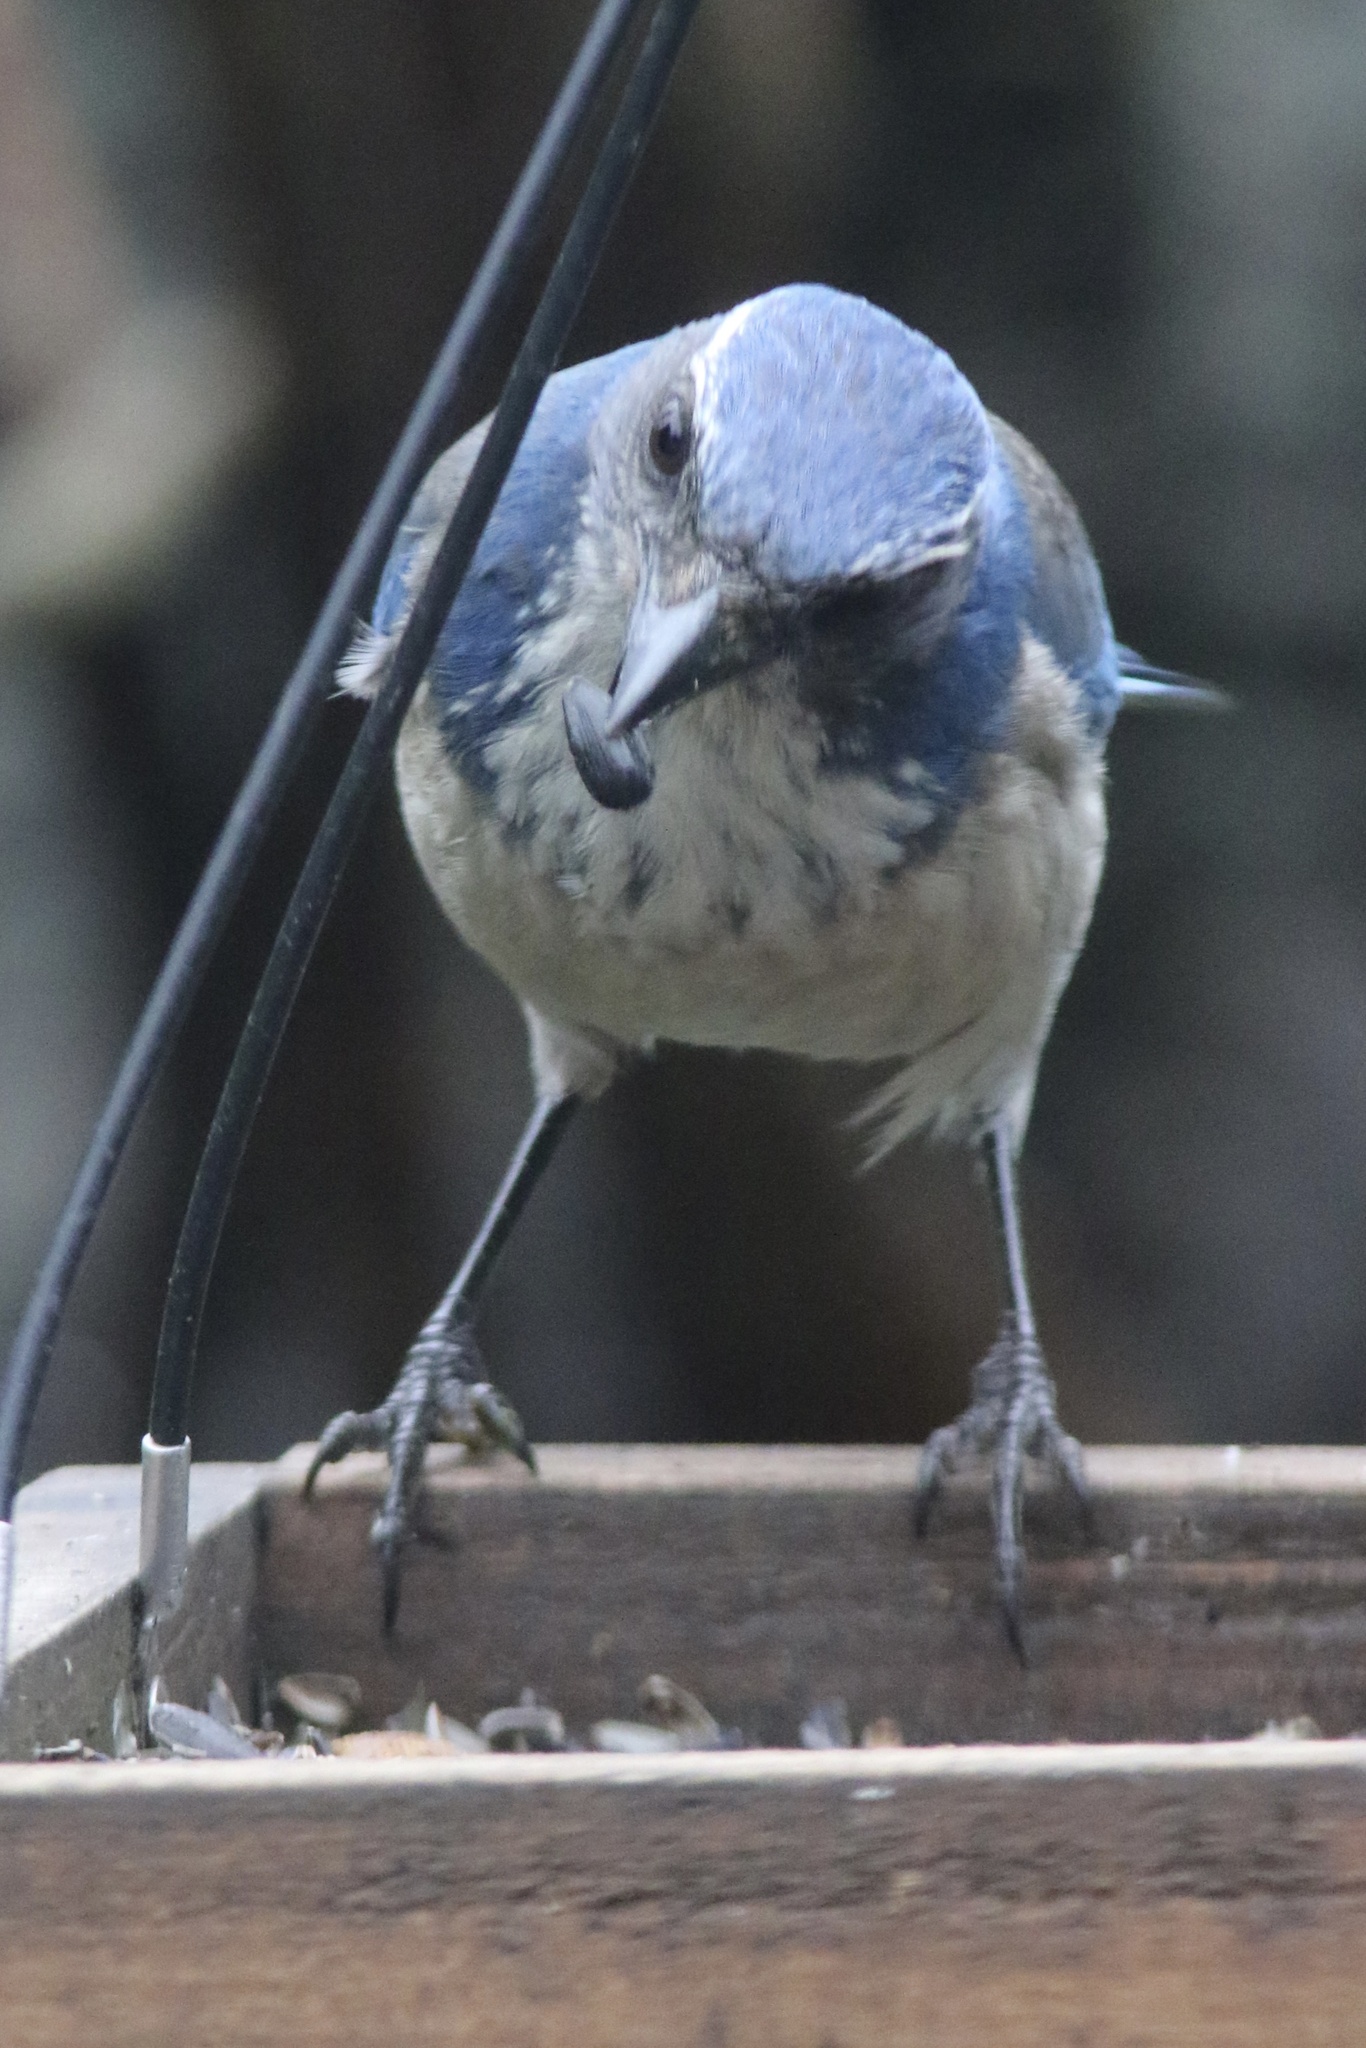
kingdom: Animalia
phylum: Chordata
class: Aves
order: Passeriformes
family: Corvidae
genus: Aphelocoma
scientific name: Aphelocoma californica
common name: California scrub-jay
